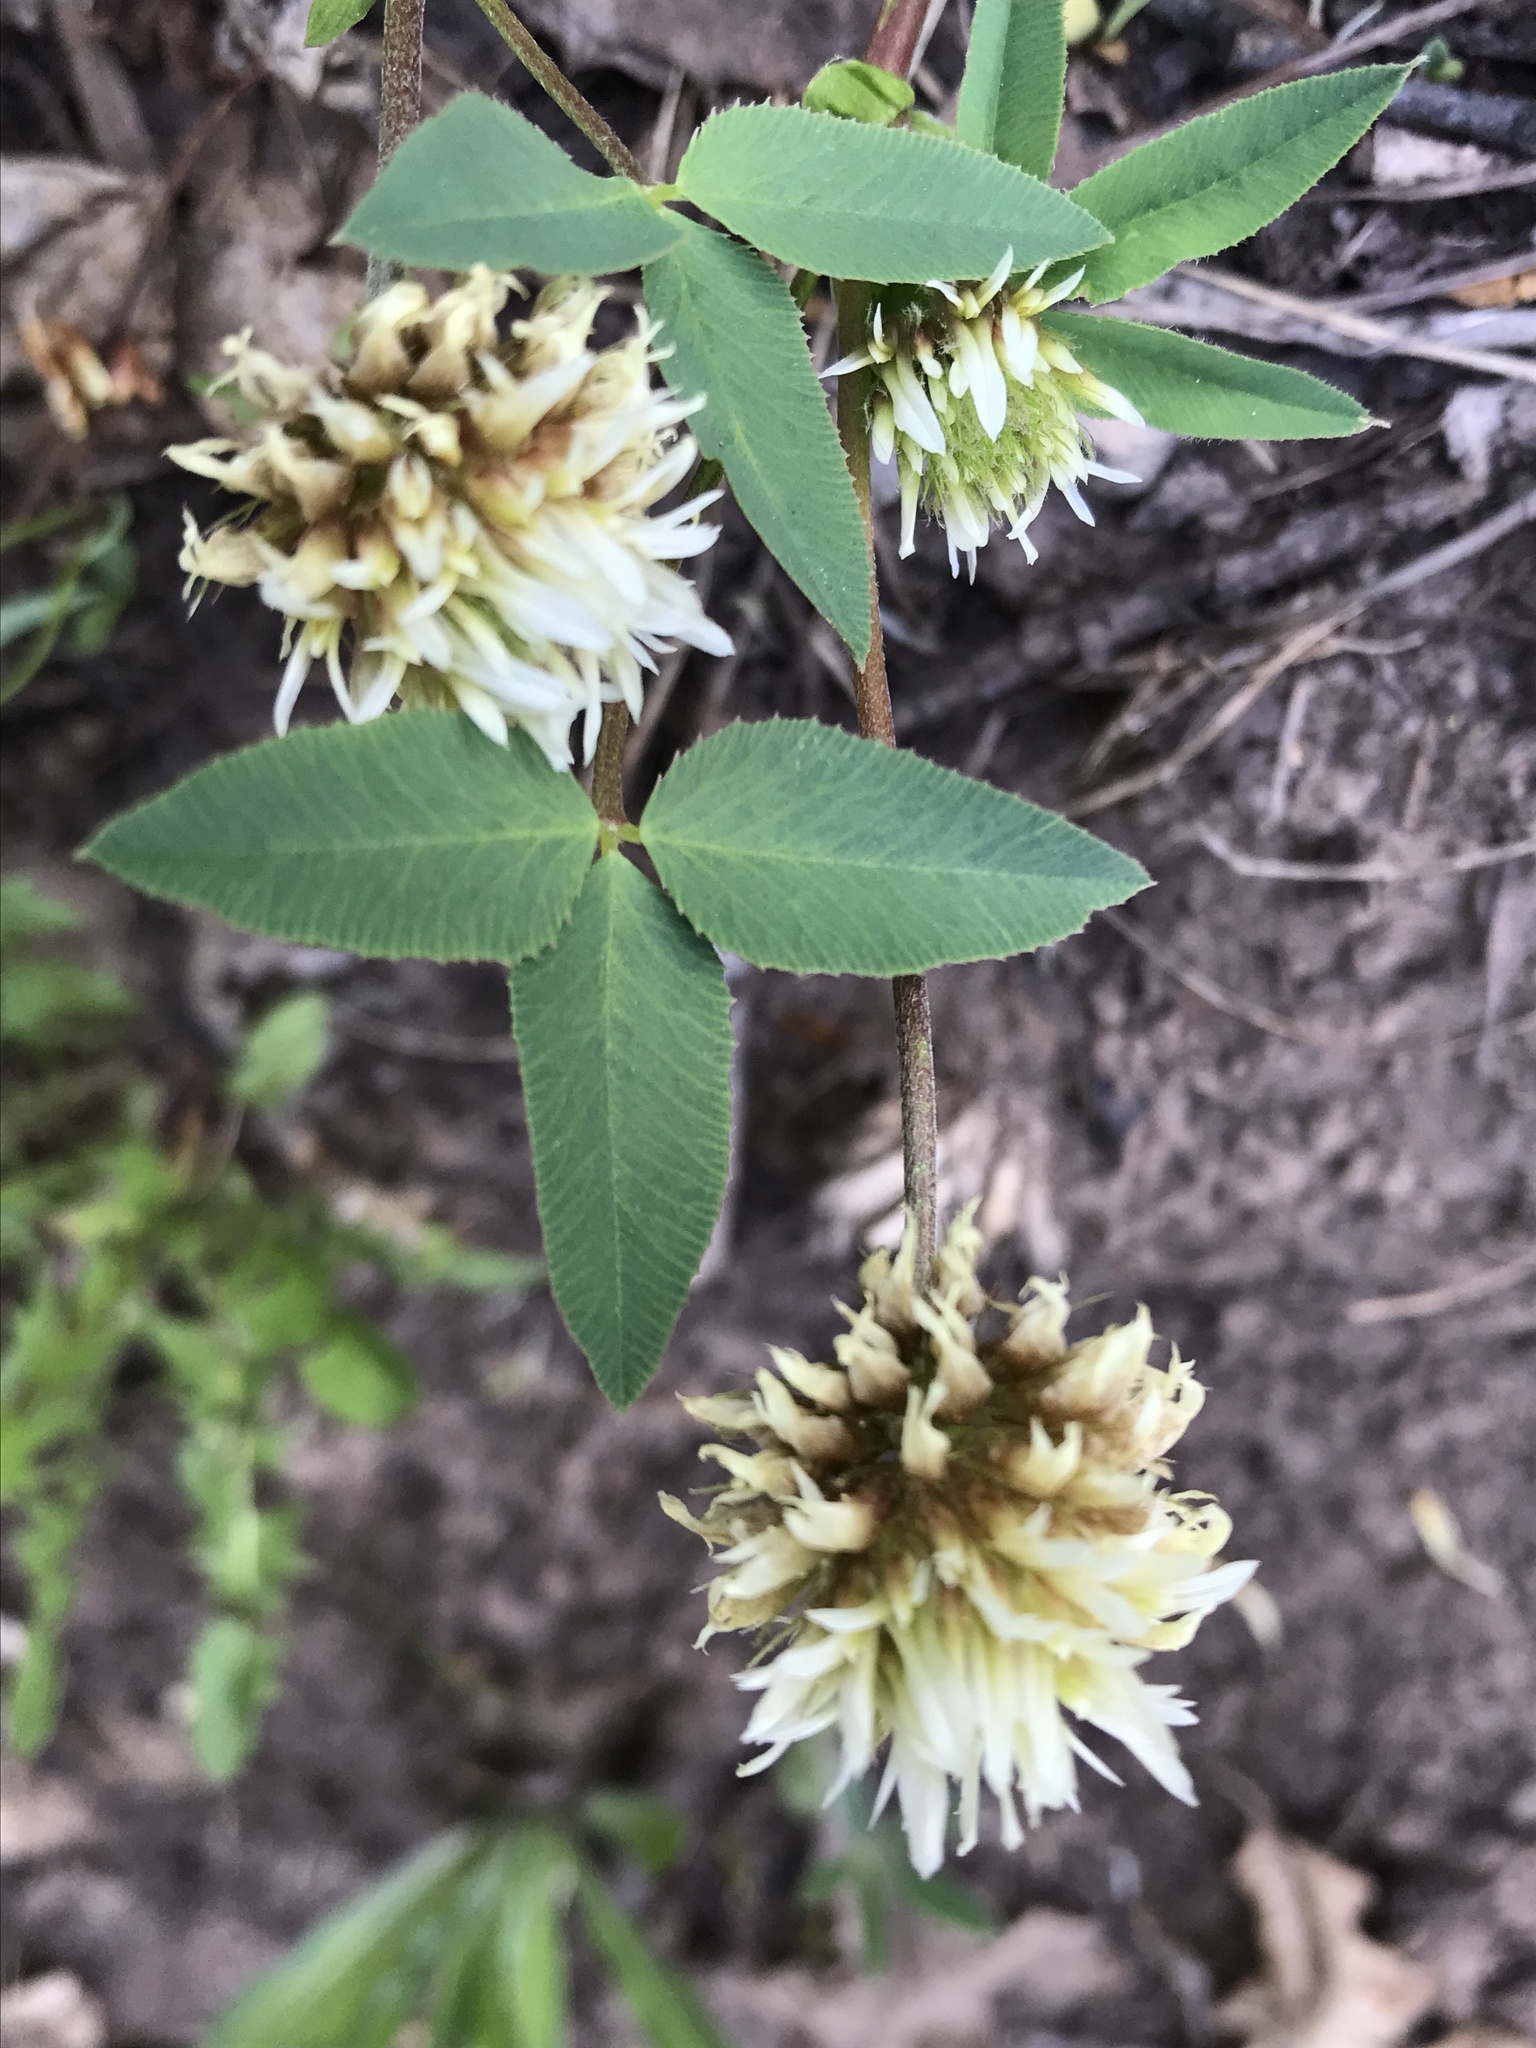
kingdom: Plantae
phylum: Tracheophyta
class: Magnoliopsida
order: Fabales
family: Fabaceae
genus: Trifolium
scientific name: Trifolium longipes
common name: Long-stalk clover
